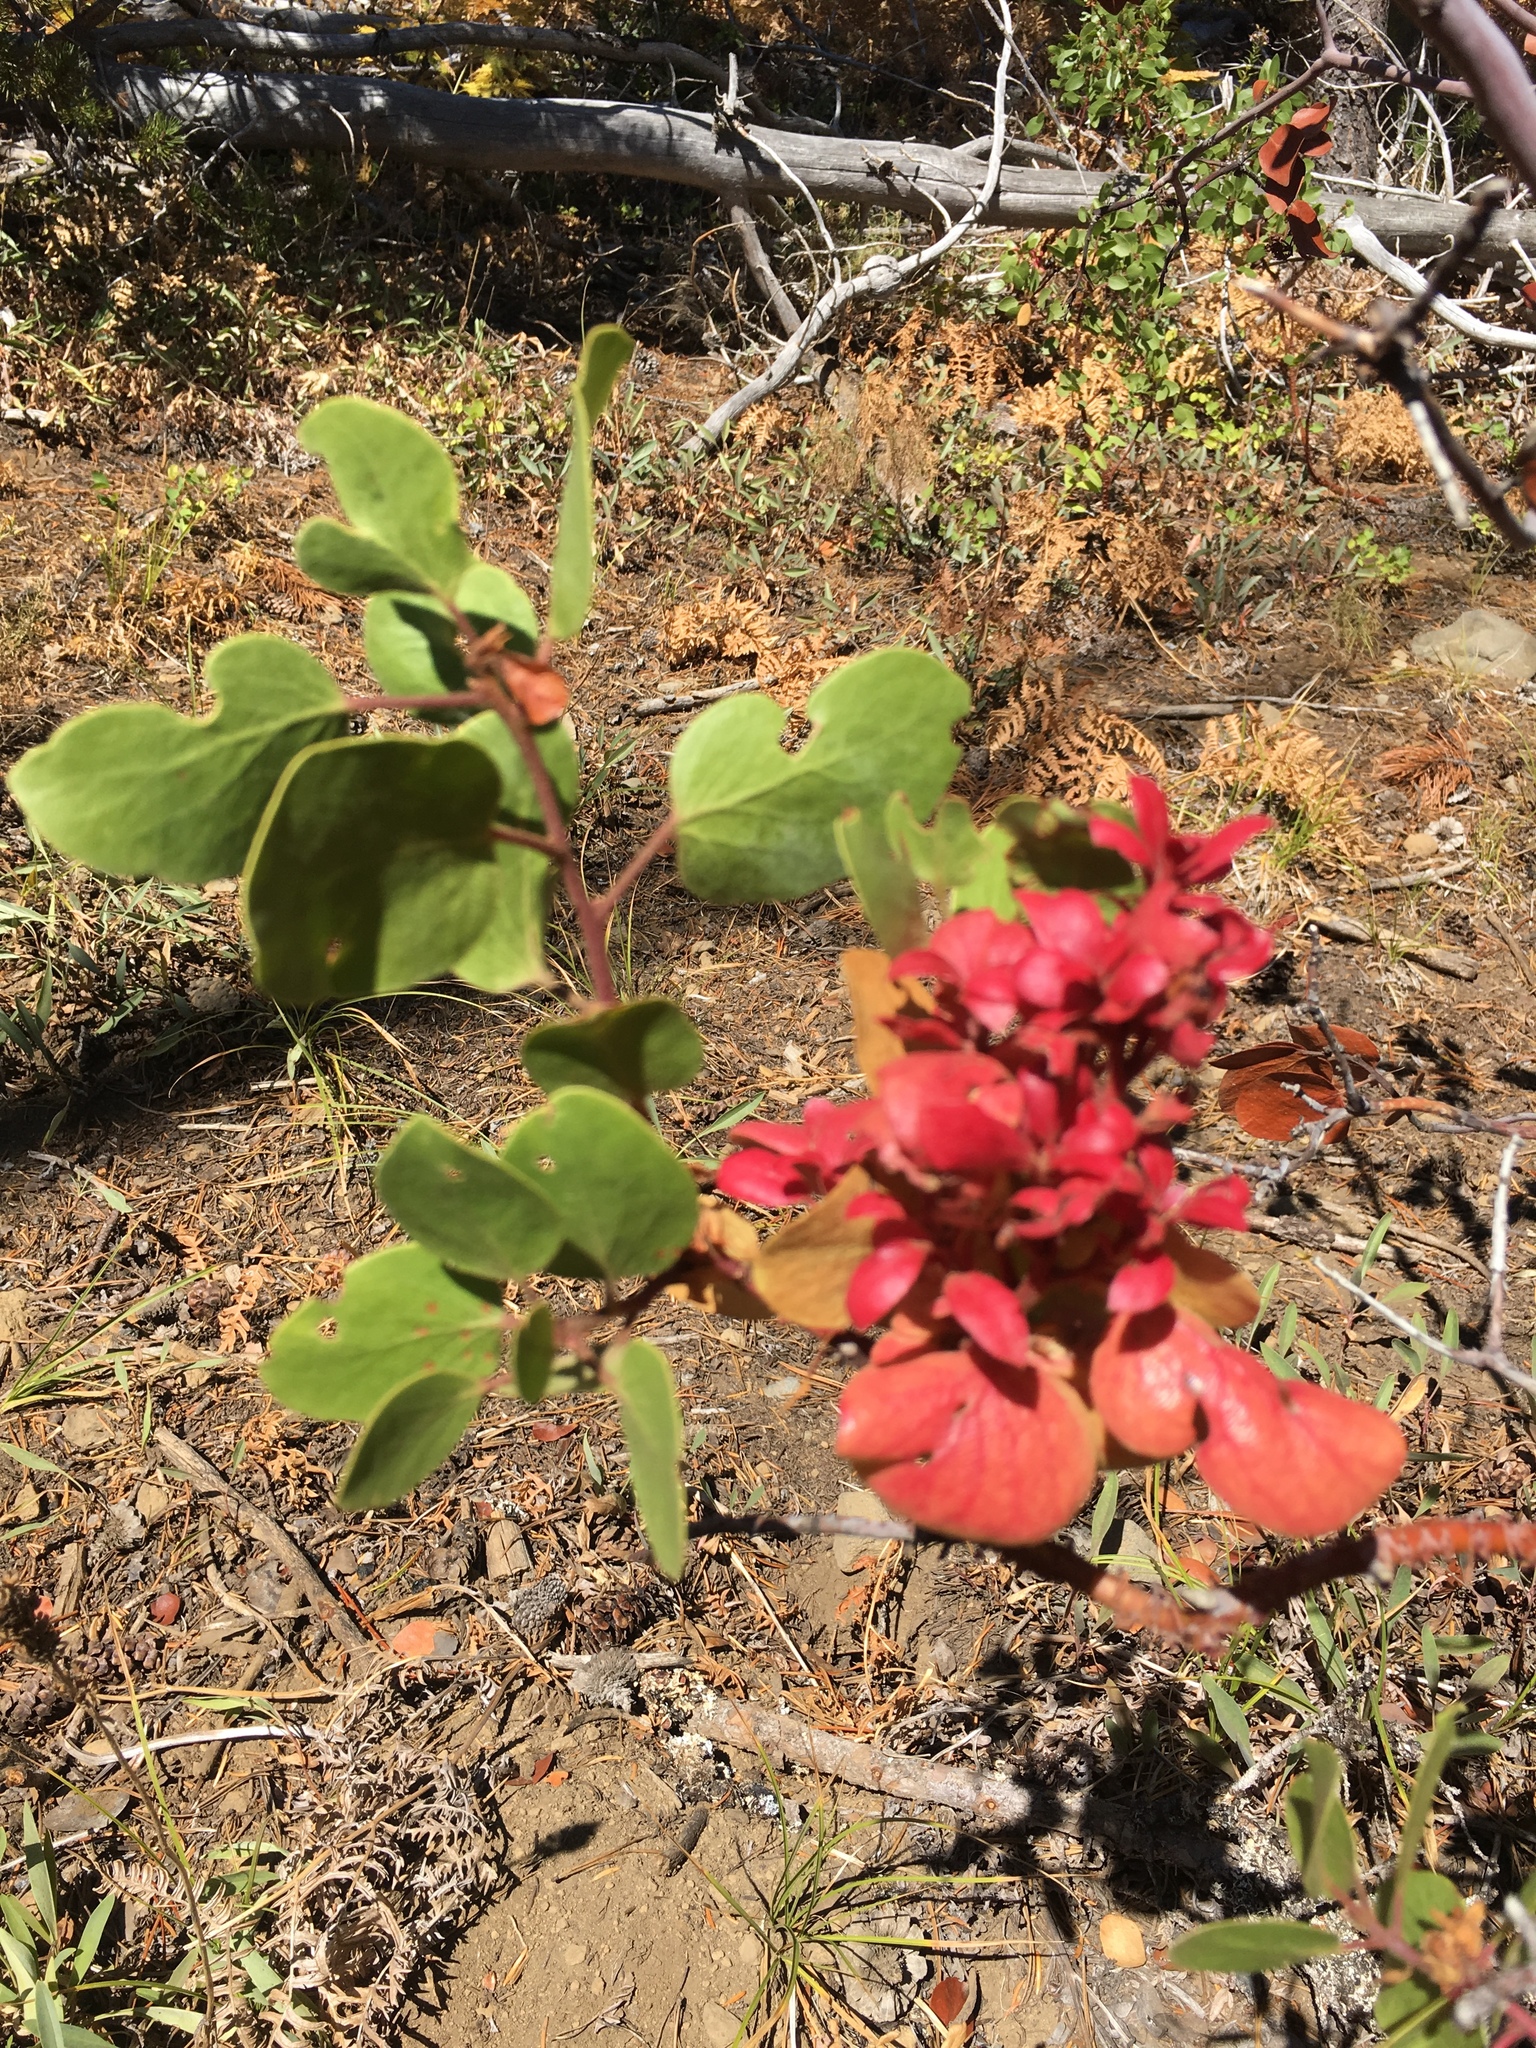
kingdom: Plantae
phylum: Tracheophyta
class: Magnoliopsida
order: Ericales
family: Ericaceae
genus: Arctostaphylos
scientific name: Arctostaphylos patula
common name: Green-leaf manzanita
